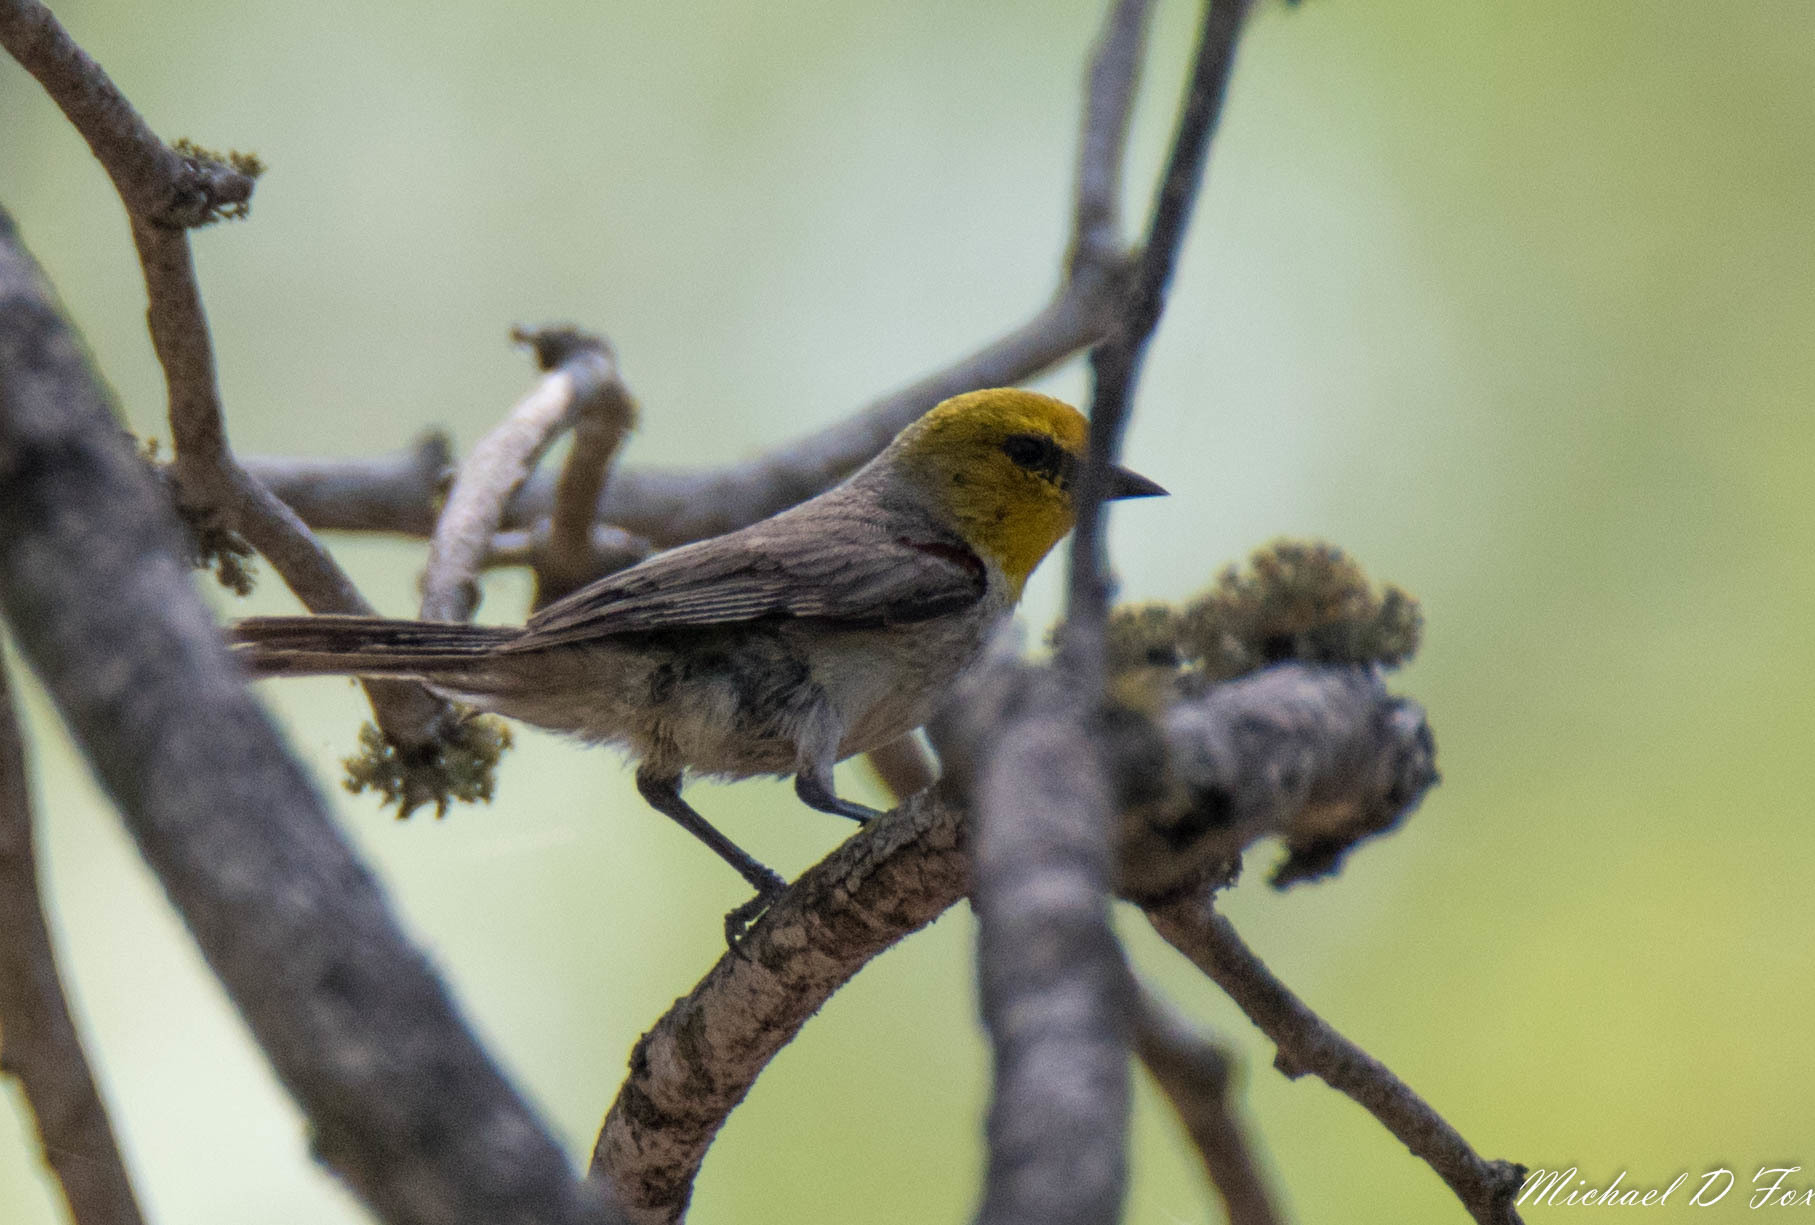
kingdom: Animalia
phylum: Chordata
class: Aves
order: Passeriformes
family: Remizidae
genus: Auriparus
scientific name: Auriparus flaviceps
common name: Verdin
